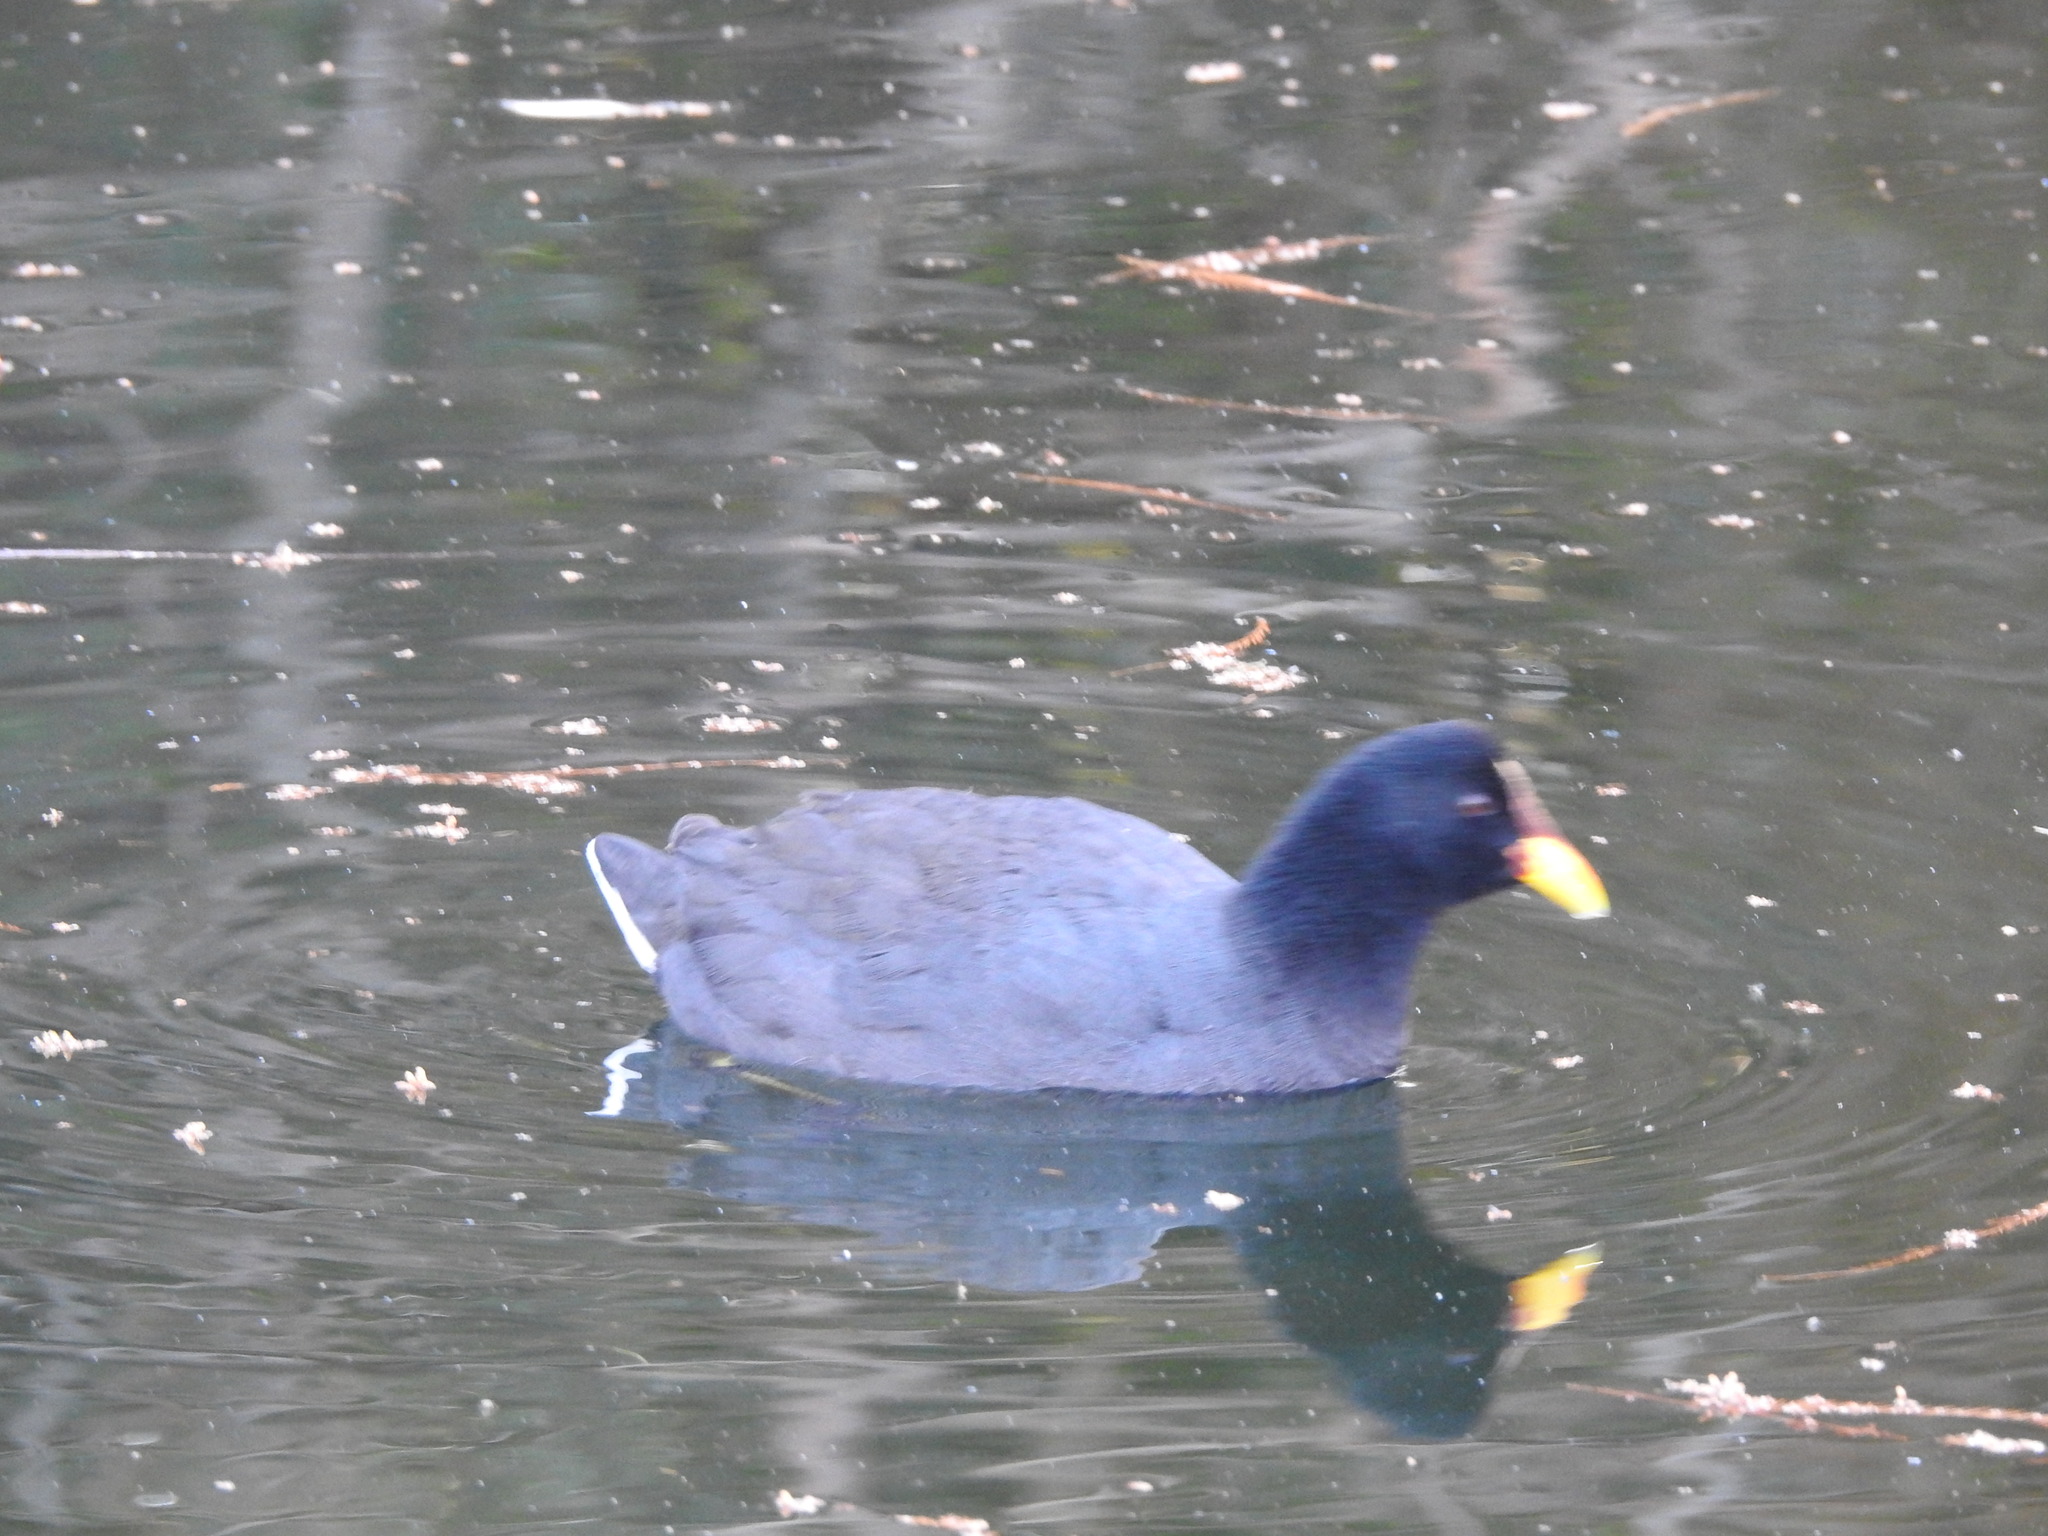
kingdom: Animalia
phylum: Chordata
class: Aves
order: Gruiformes
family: Rallidae
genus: Fulica
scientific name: Fulica rufifrons
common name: Red-fronted coot
